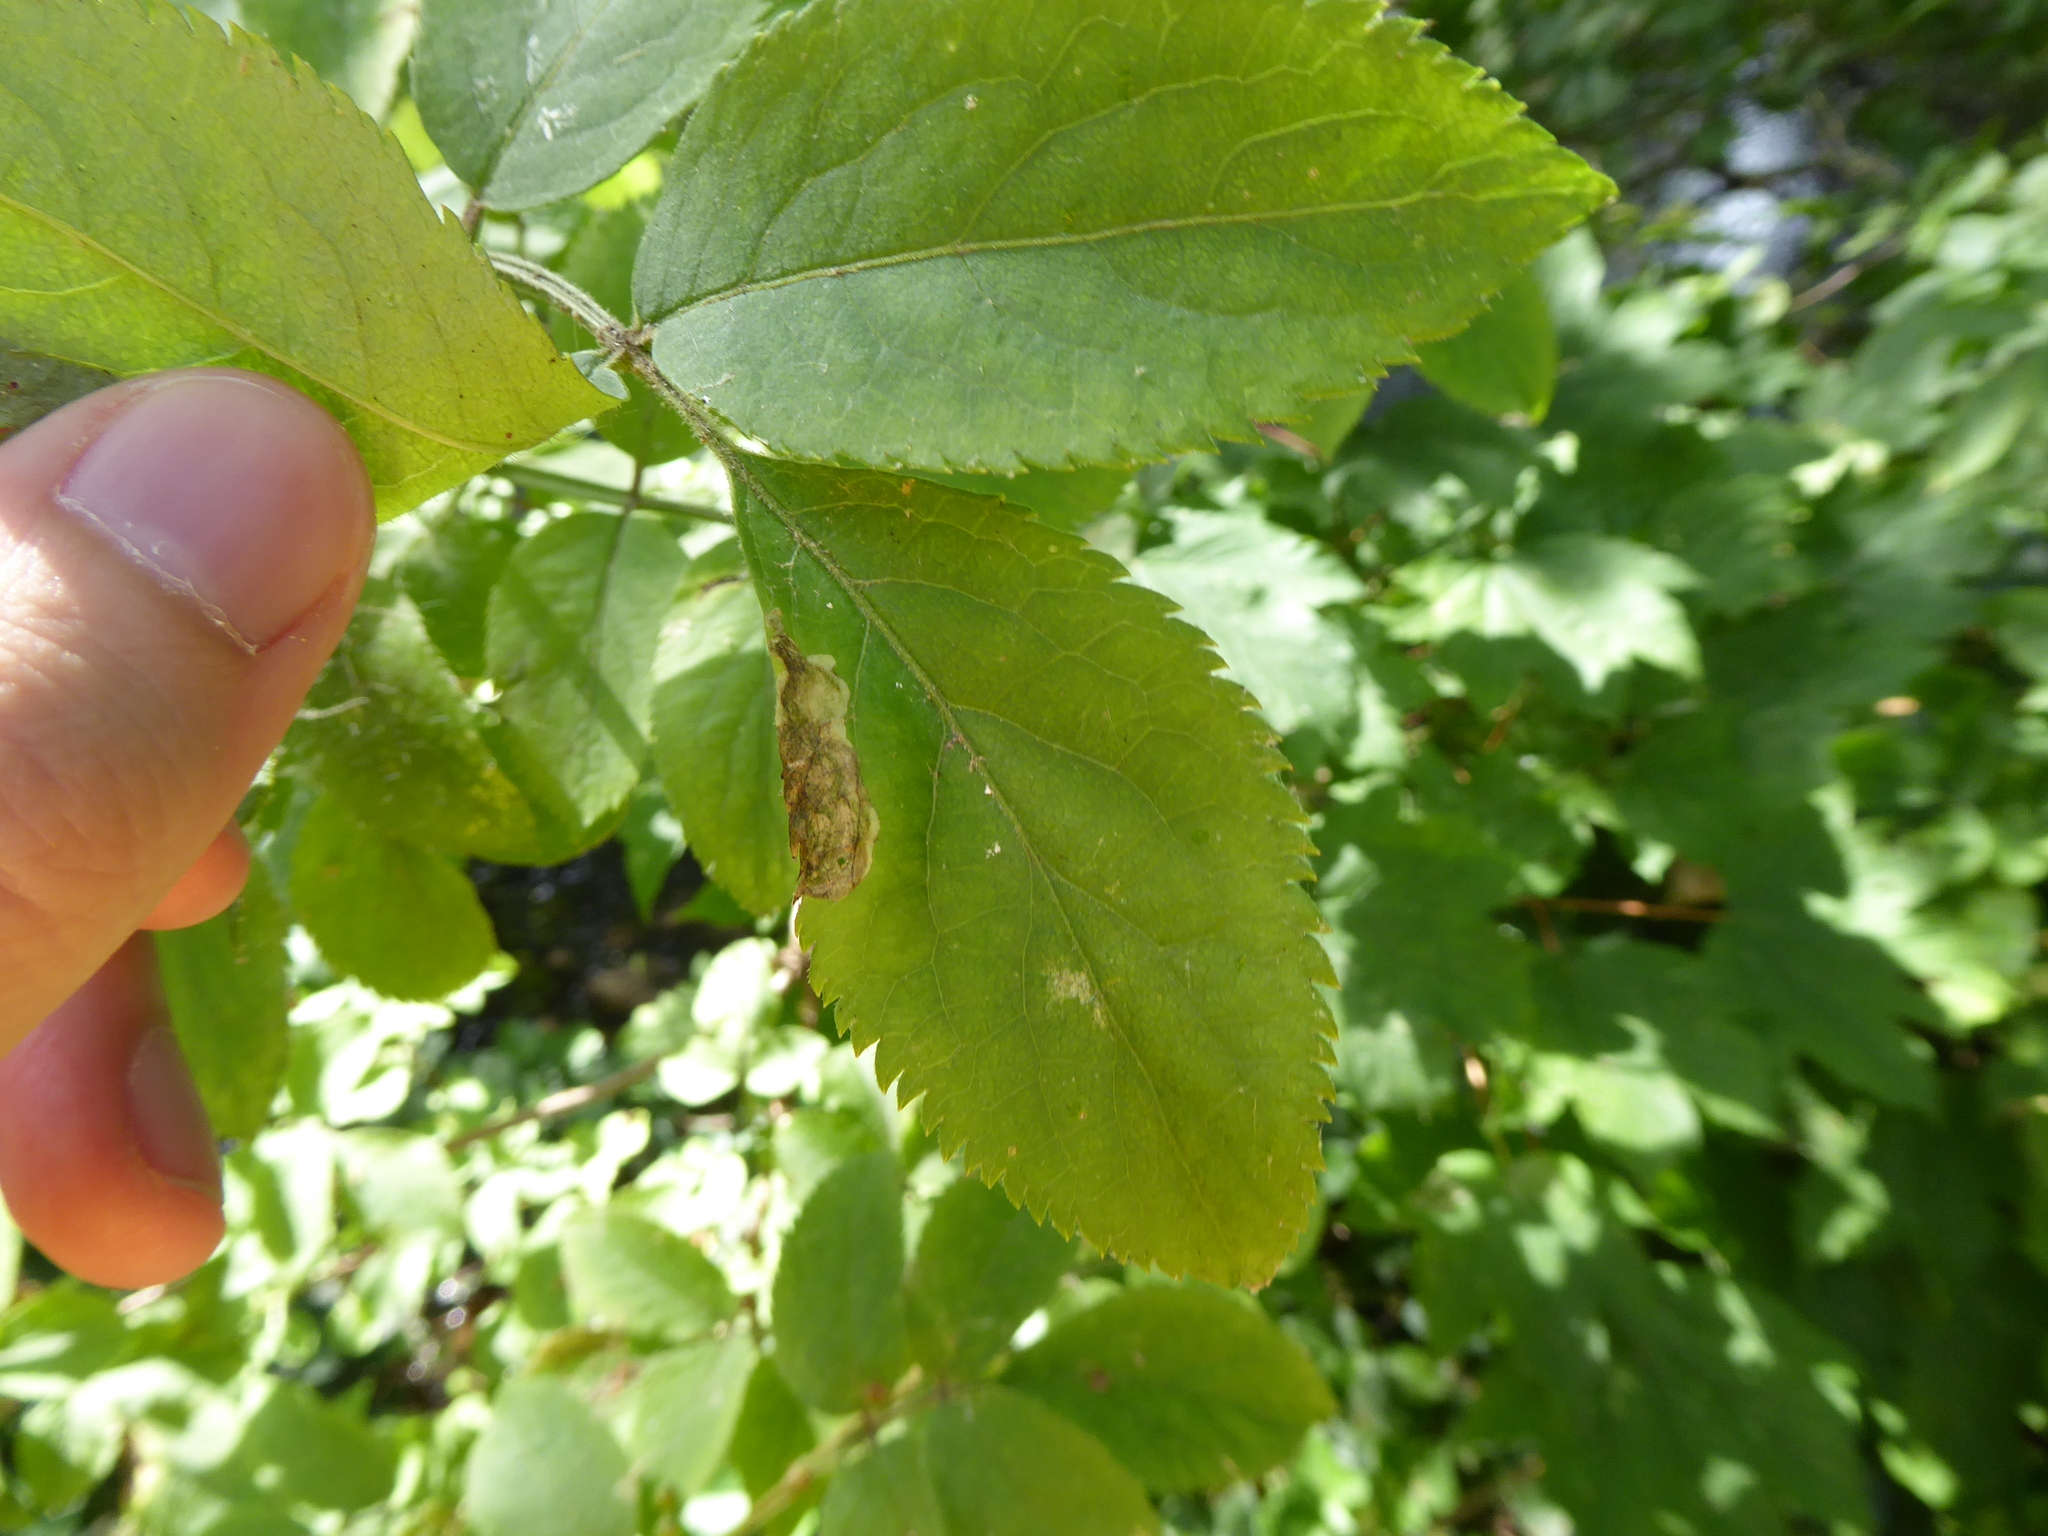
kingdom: Animalia
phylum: Arthropoda
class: Insecta
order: Diptera
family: Agromyzidae
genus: Liriomyza
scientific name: Liriomyza amoena
